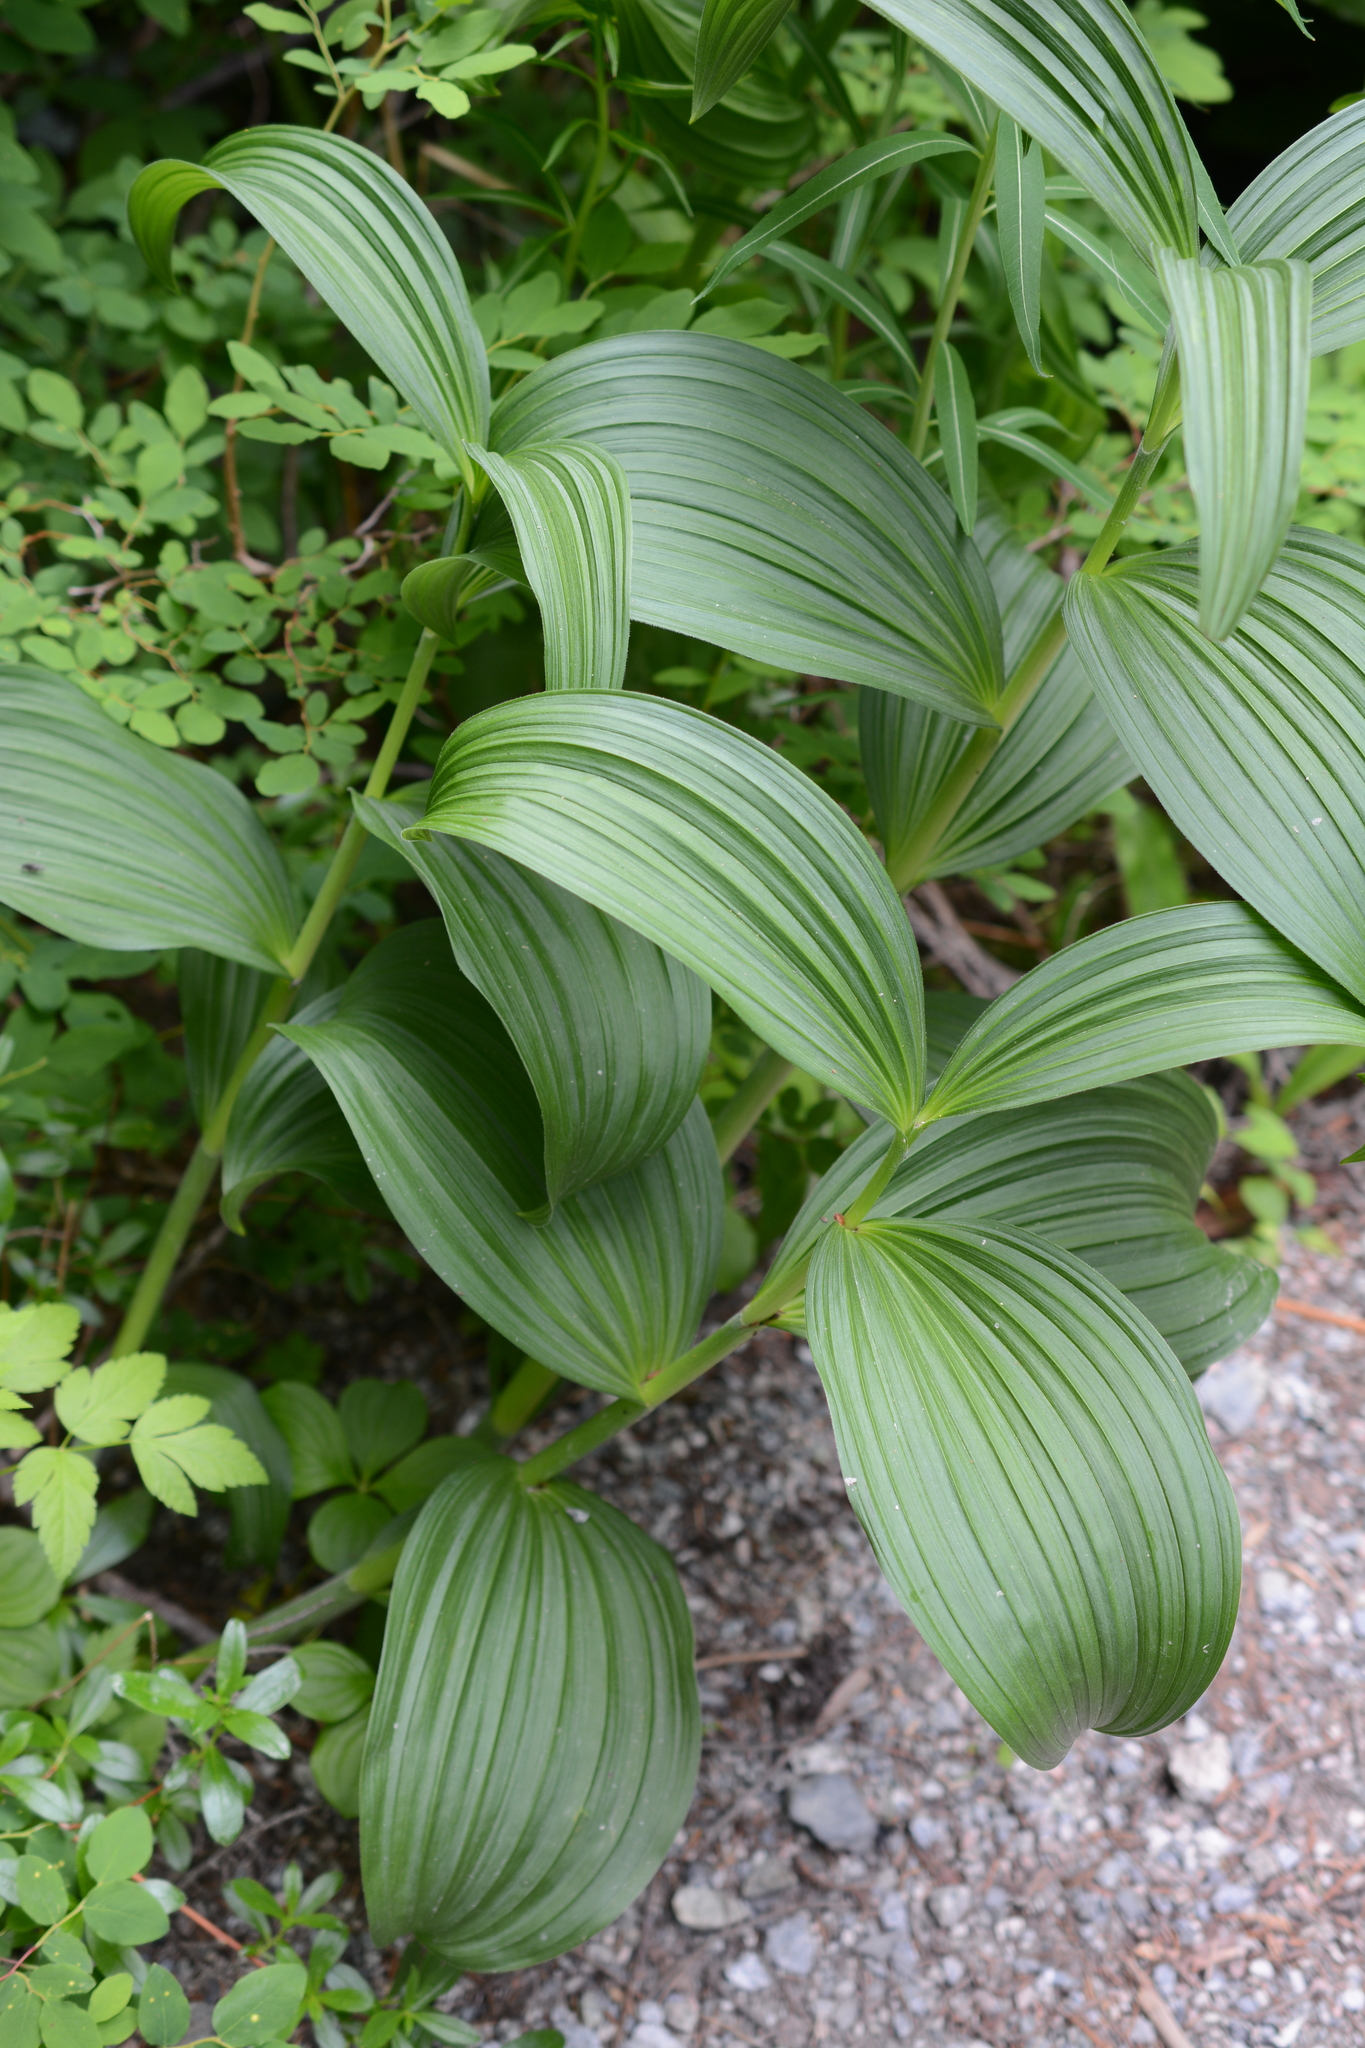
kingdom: Plantae
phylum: Tracheophyta
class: Liliopsida
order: Liliales
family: Melanthiaceae
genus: Veratrum
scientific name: Veratrum viride
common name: American false hellebore
